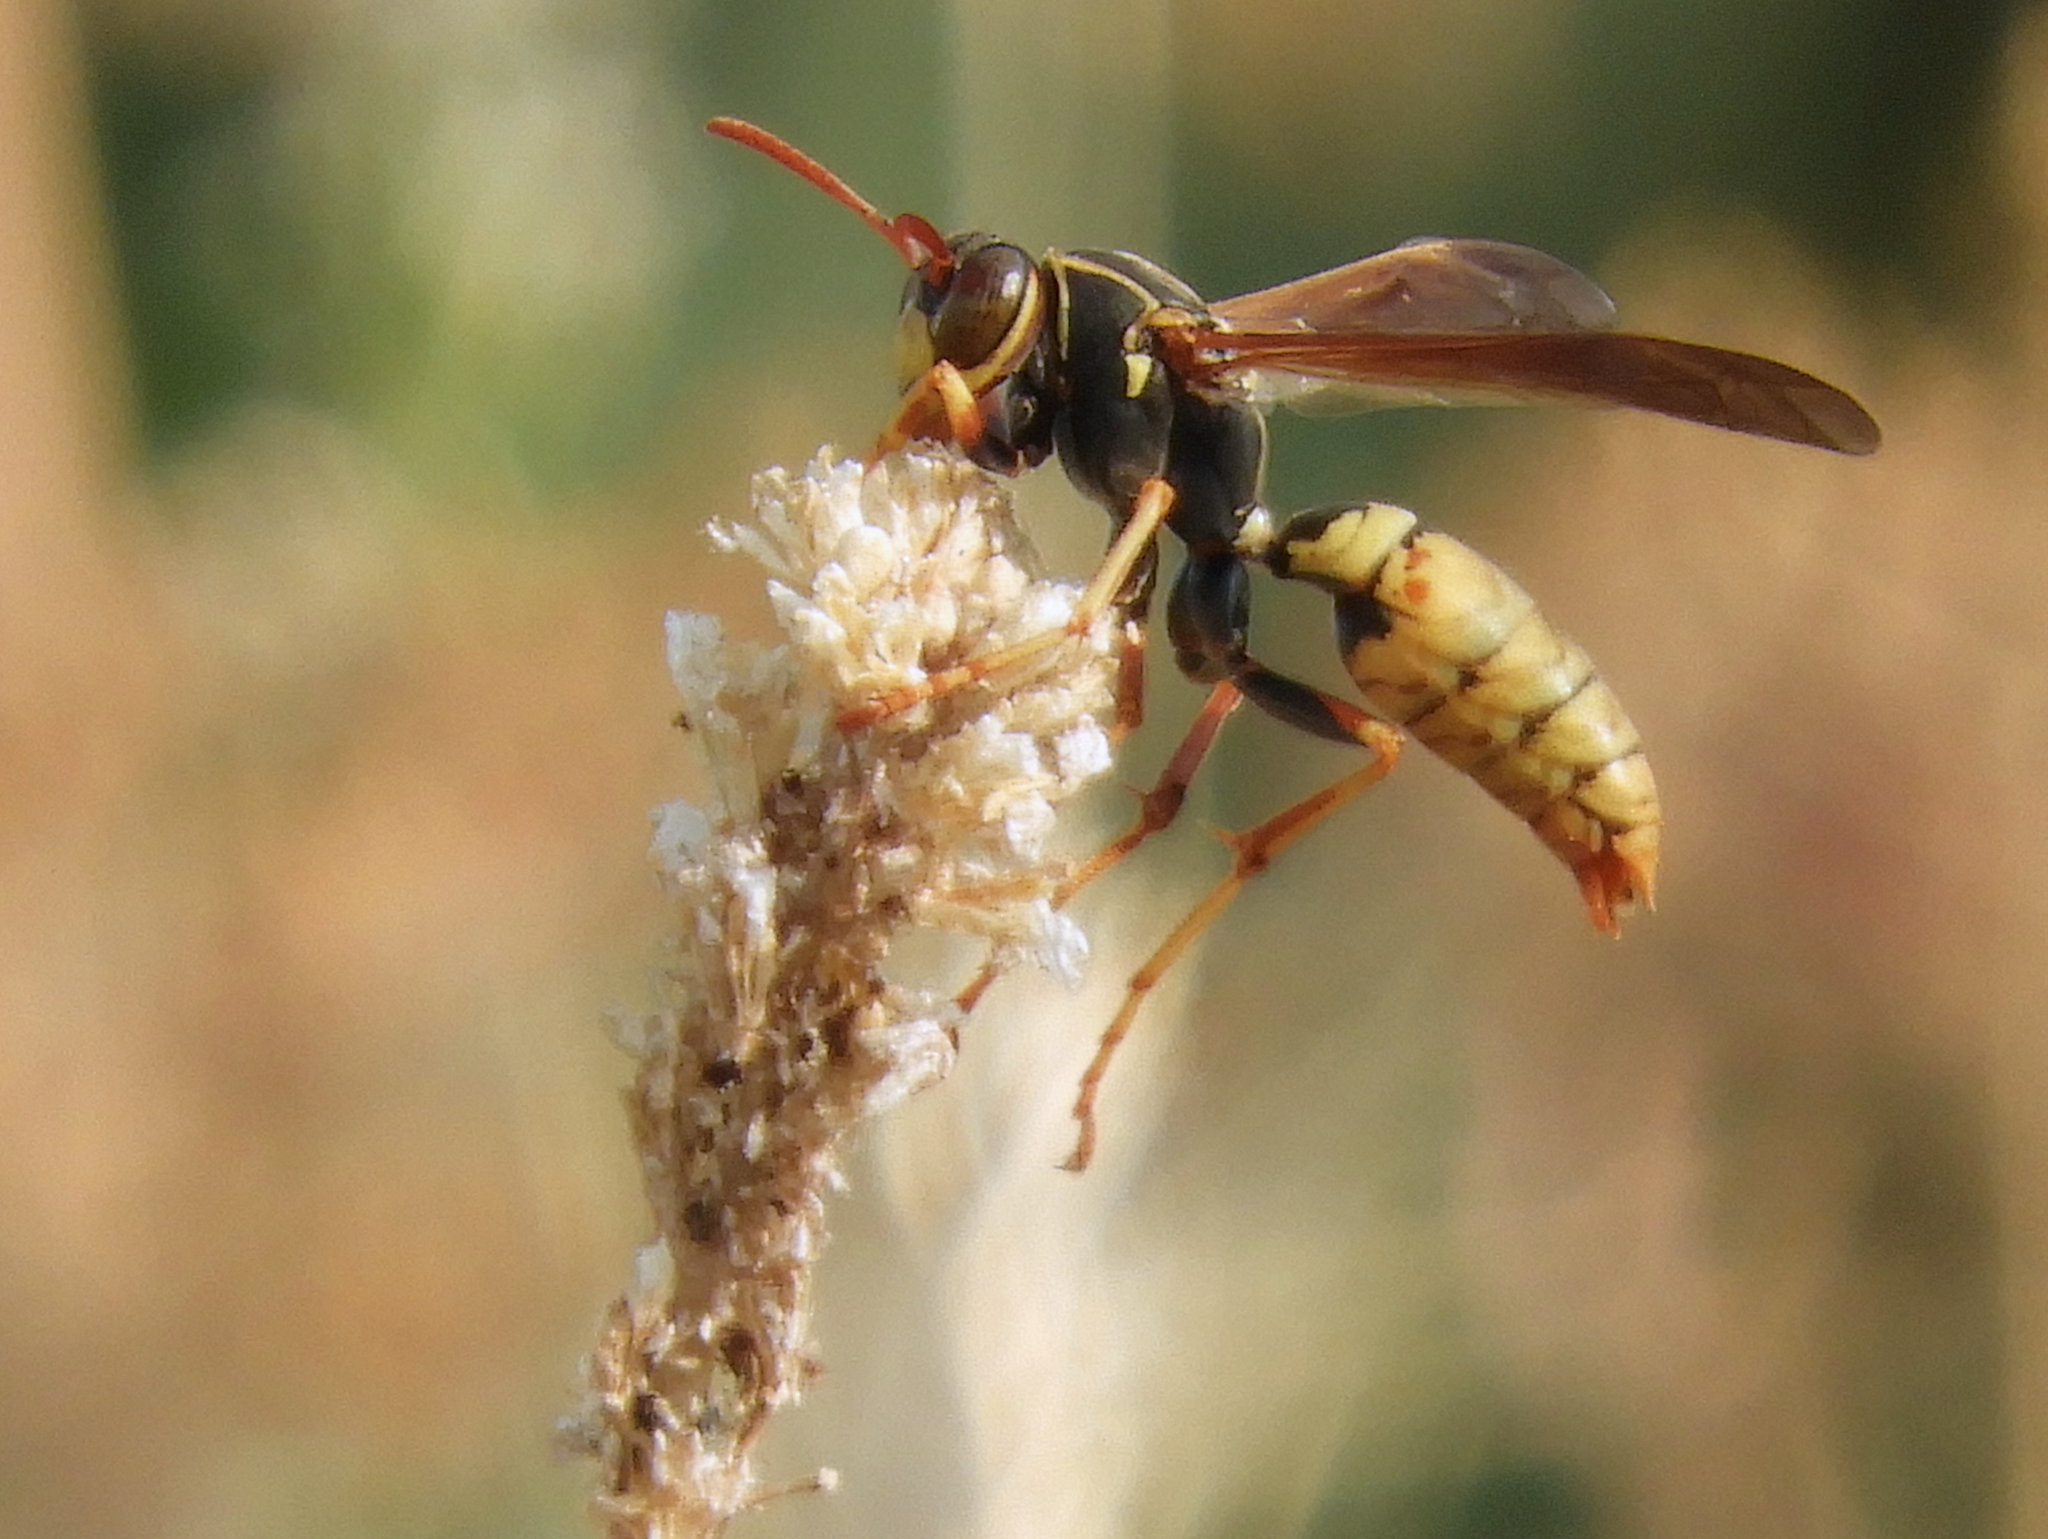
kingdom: Animalia
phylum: Arthropoda
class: Insecta
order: Hymenoptera
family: Eumenidae
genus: Polistes
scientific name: Polistes aurifer
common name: Paper wasp
